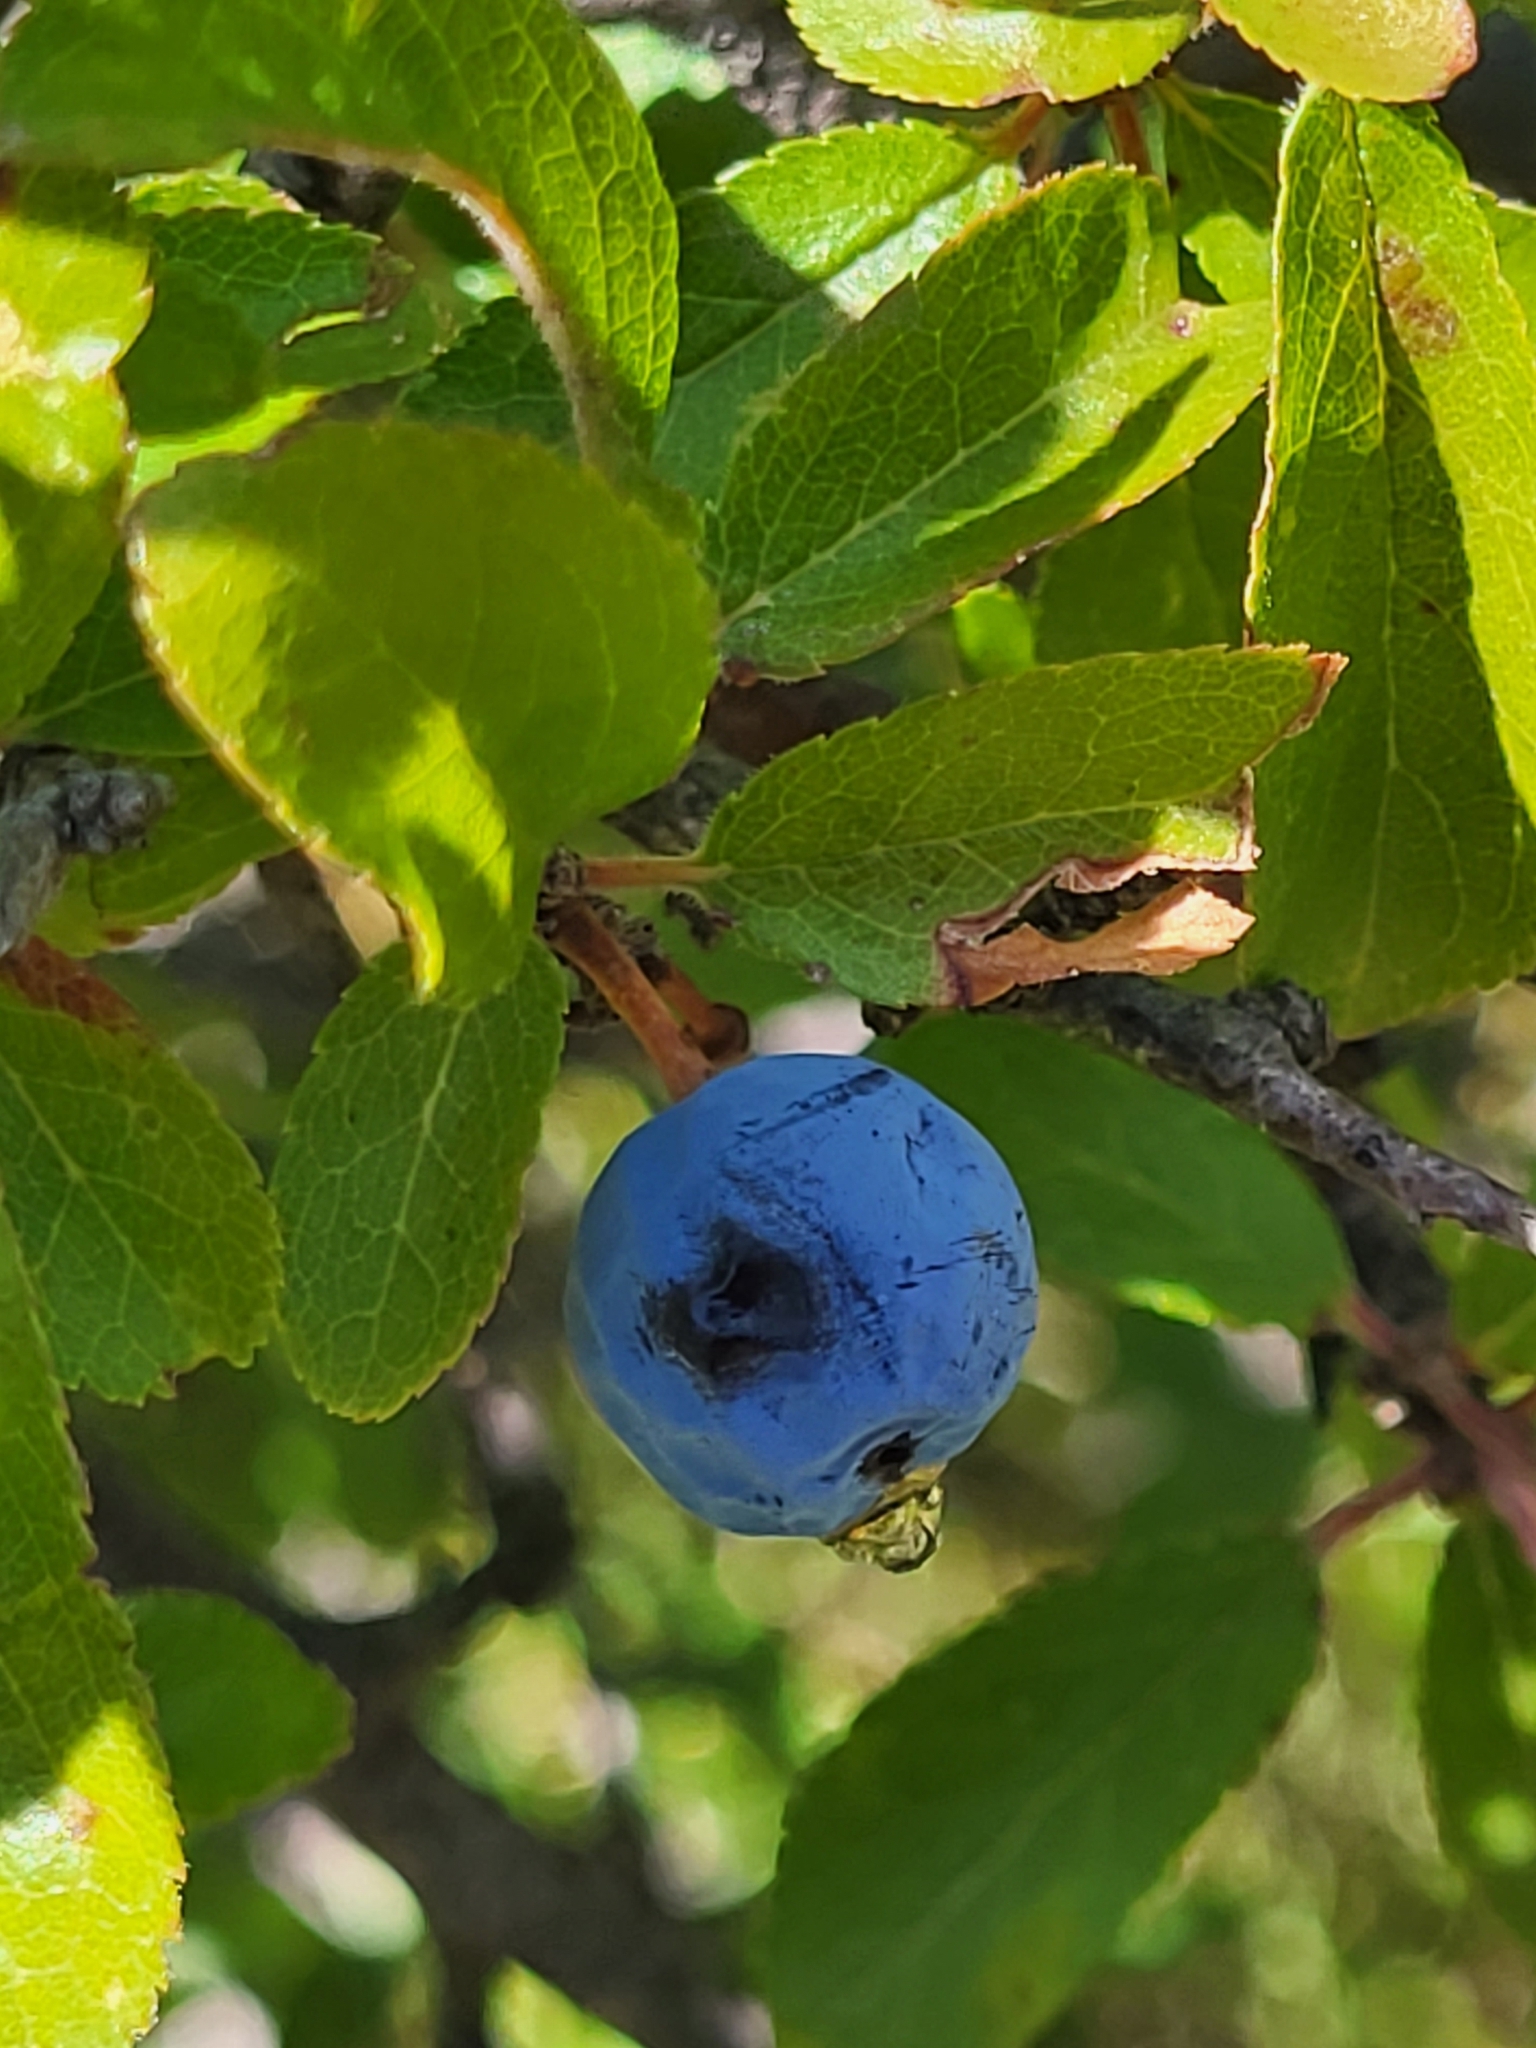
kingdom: Plantae
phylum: Tracheophyta
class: Magnoliopsida
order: Rosales
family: Rosaceae
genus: Prunus
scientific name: Prunus spinosa
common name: Blackthorn
